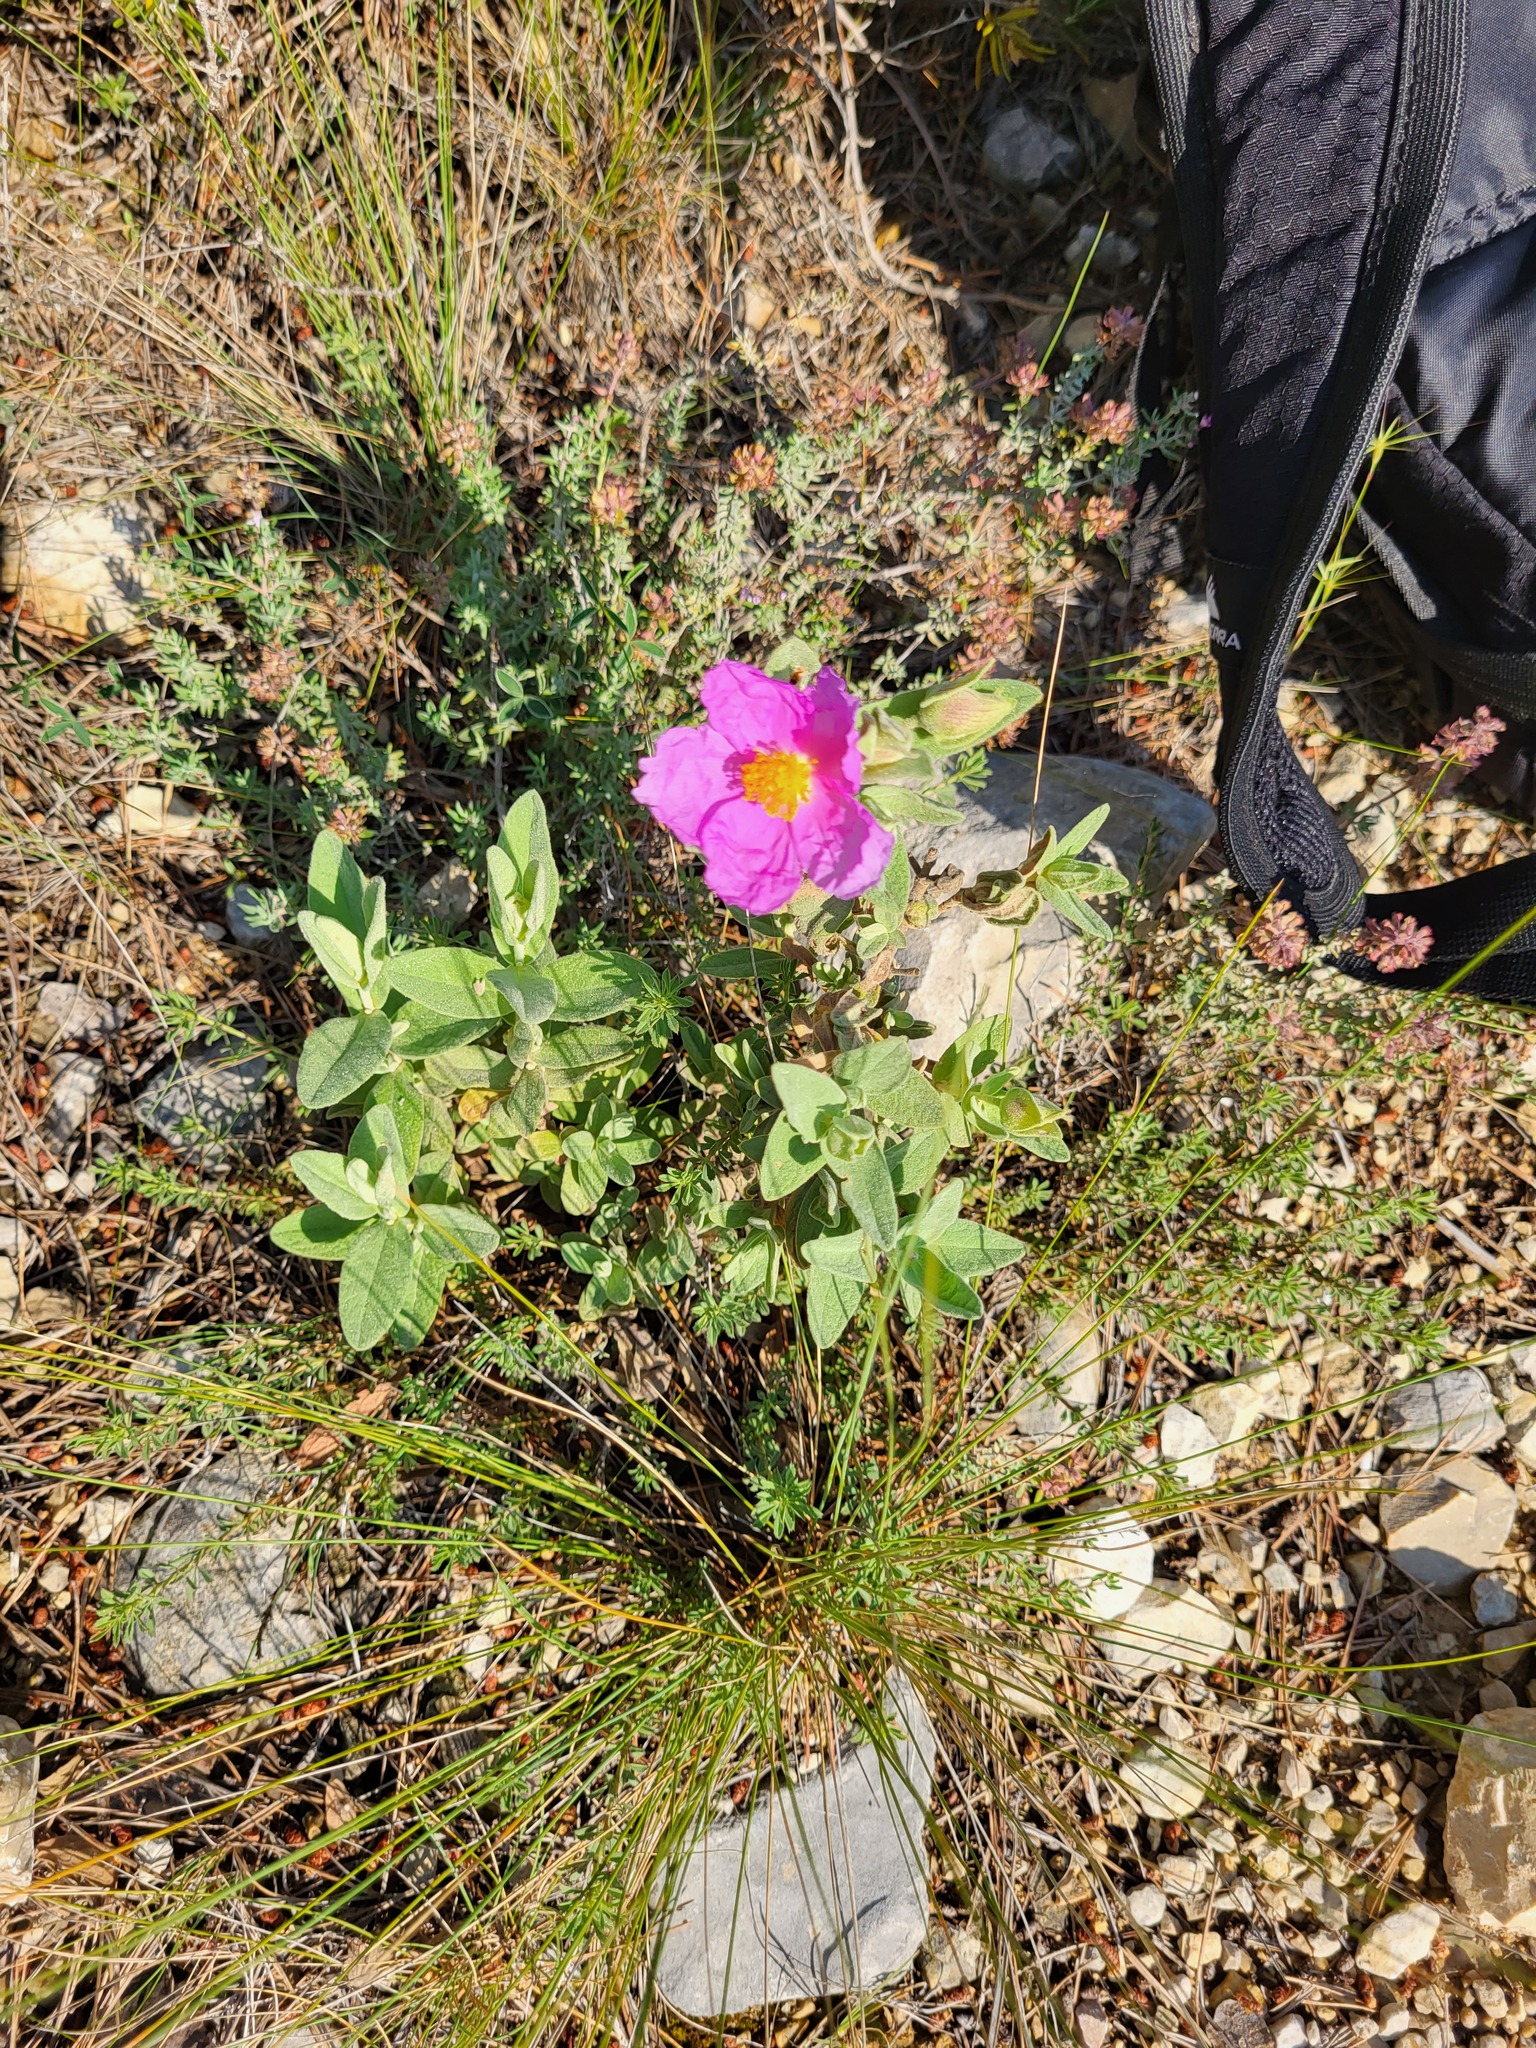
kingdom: Plantae
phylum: Tracheophyta
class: Magnoliopsida
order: Malvales
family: Cistaceae
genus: Cistus
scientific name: Cistus albidus
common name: White-leaf rock-rose
